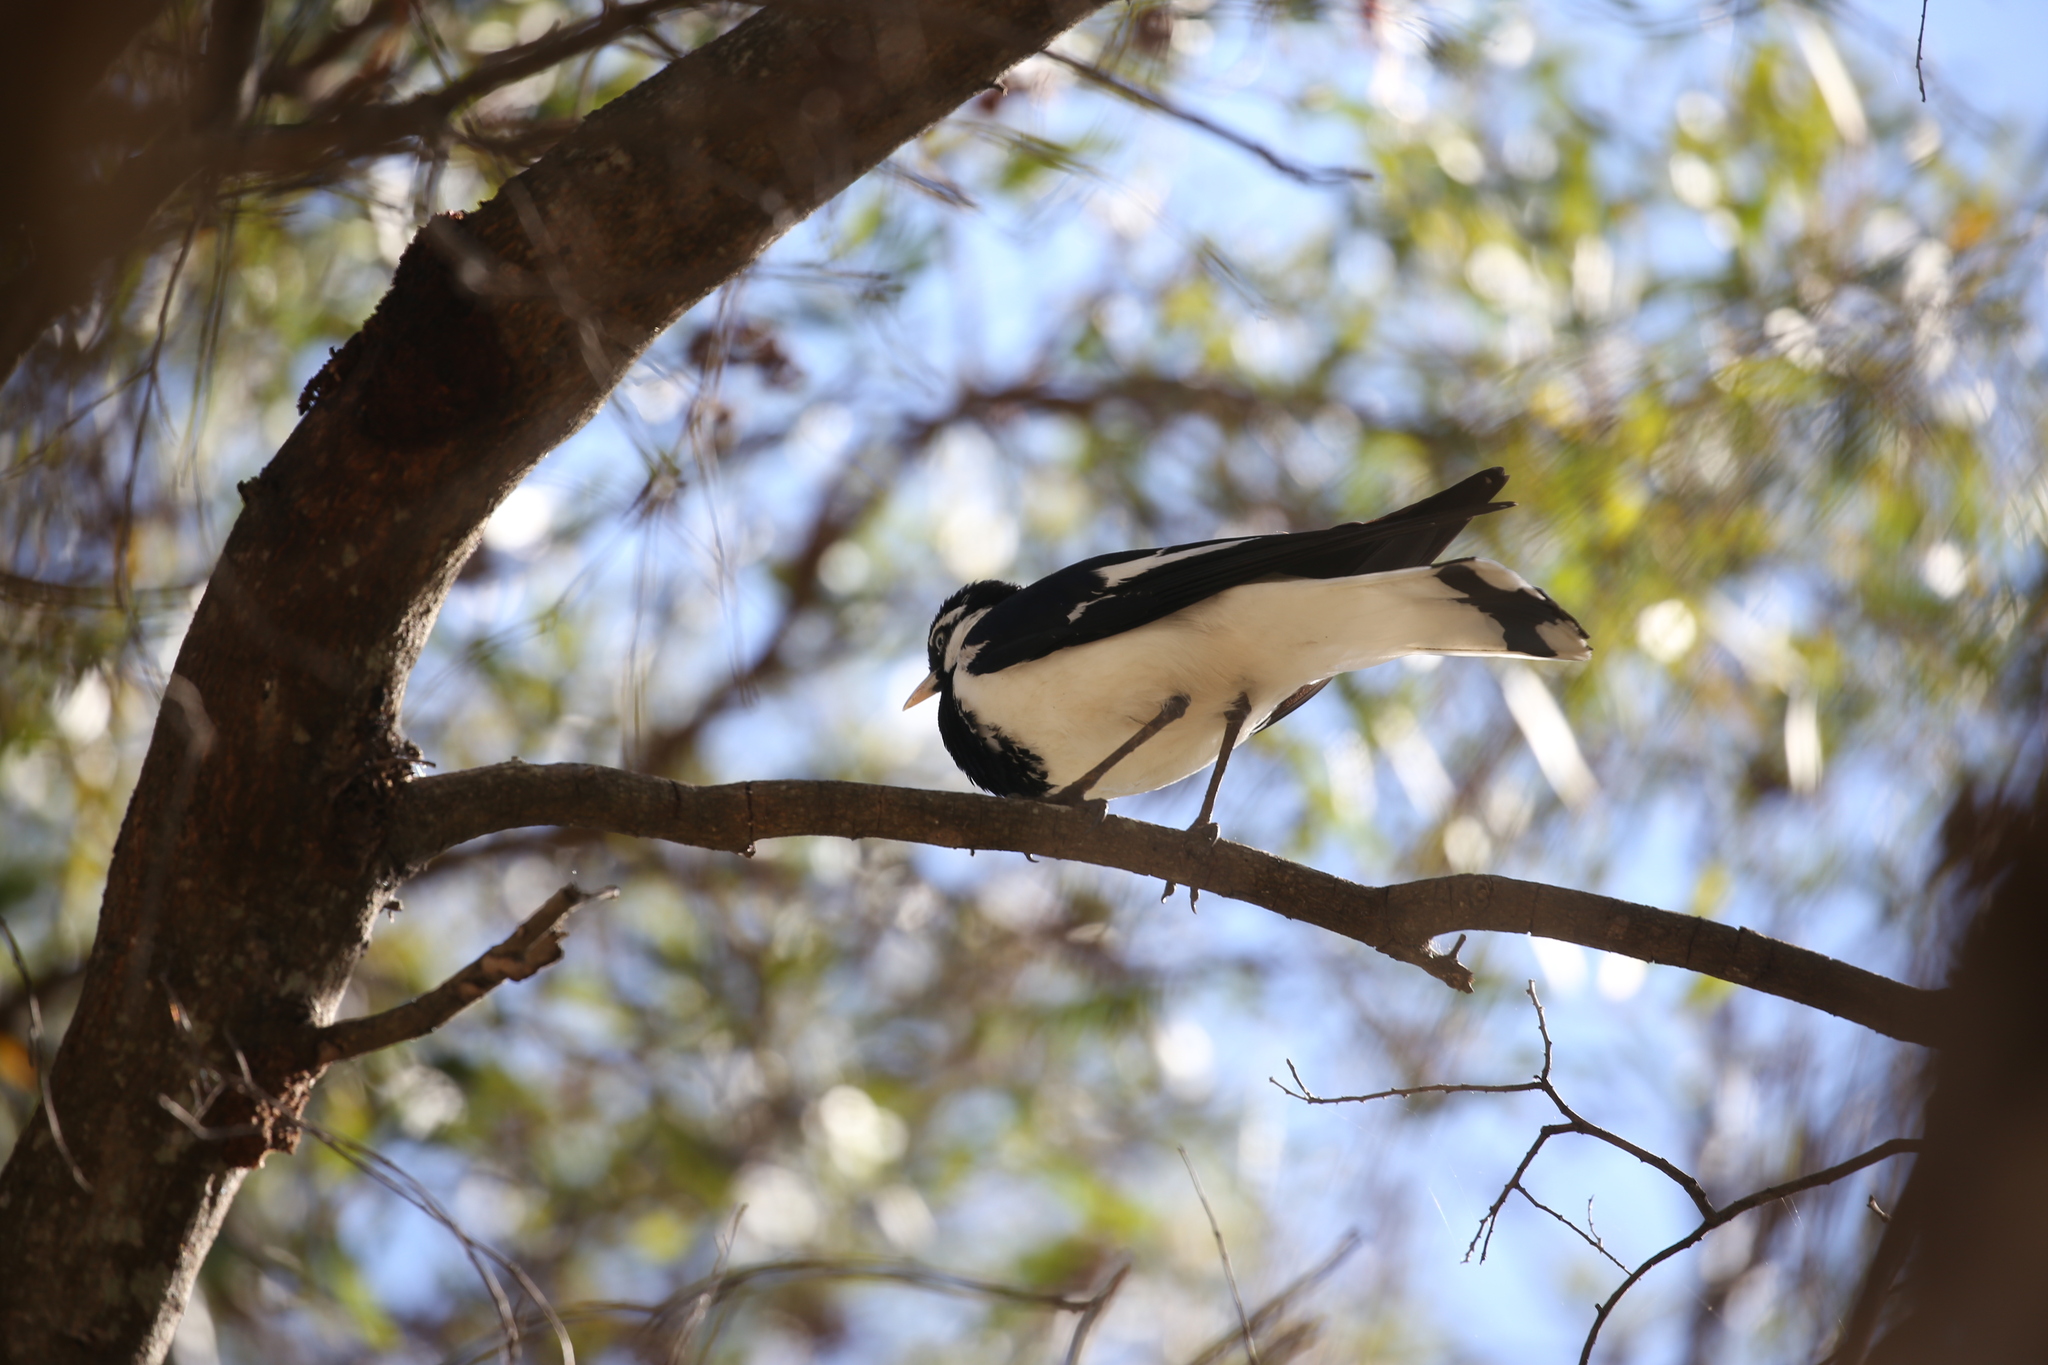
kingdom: Animalia
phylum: Chordata
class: Aves
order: Passeriformes
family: Monarchidae
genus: Grallina
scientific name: Grallina cyanoleuca
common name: Magpie-lark
